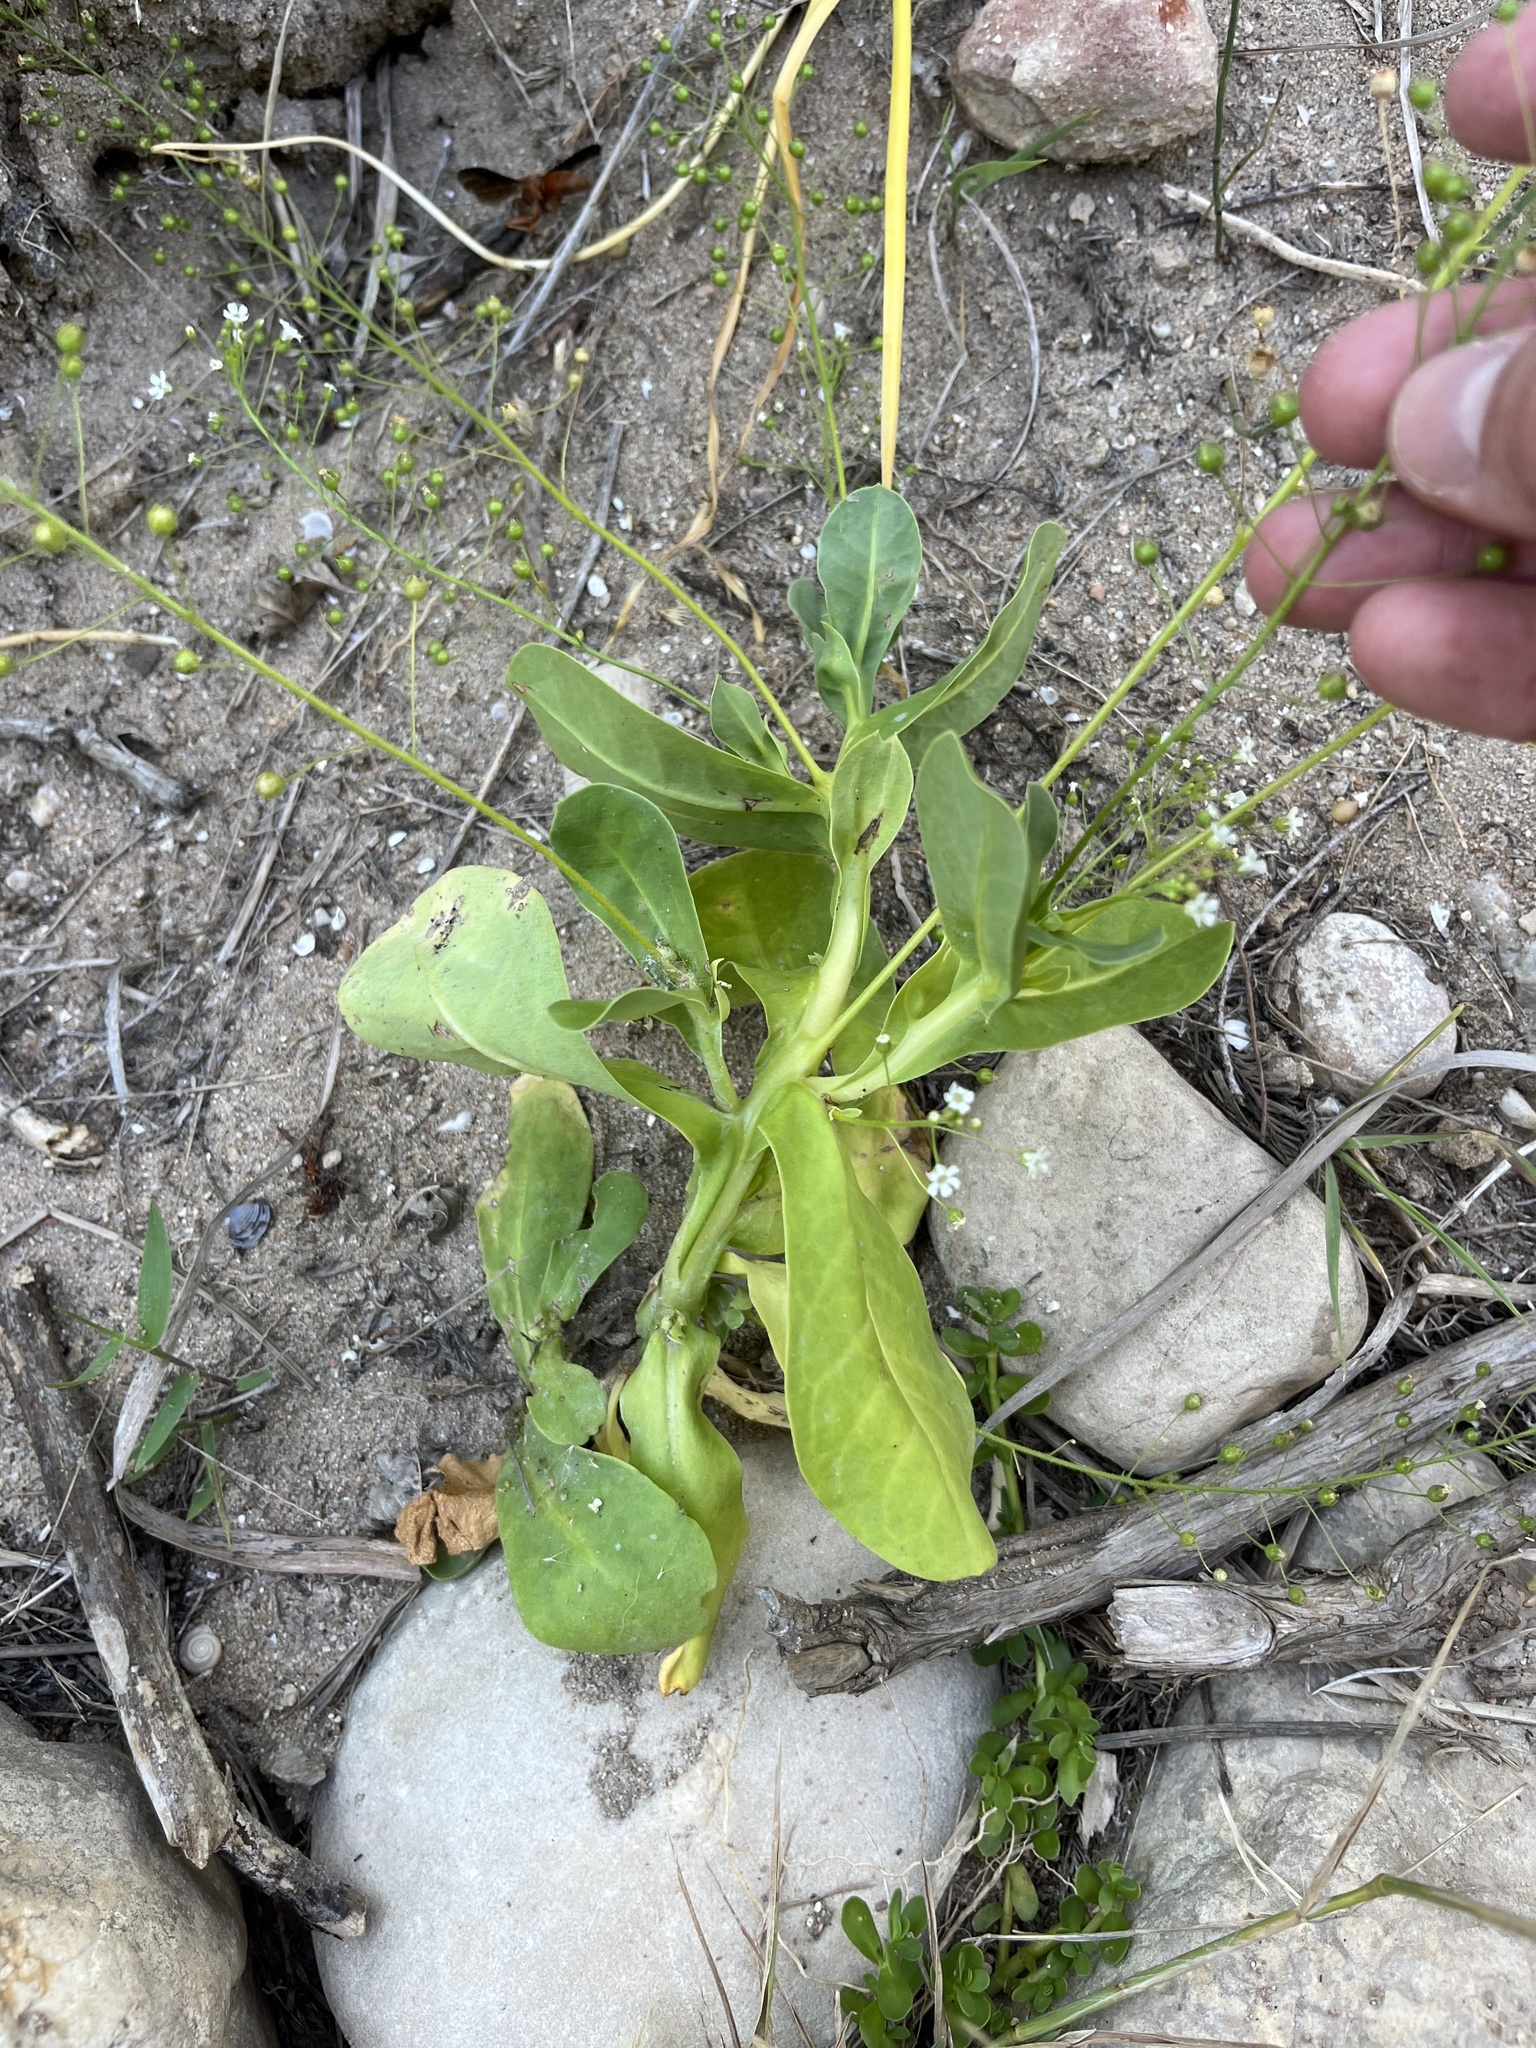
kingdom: Plantae
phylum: Tracheophyta
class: Magnoliopsida
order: Ericales
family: Primulaceae
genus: Samolus
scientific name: Samolus ebracteatus
